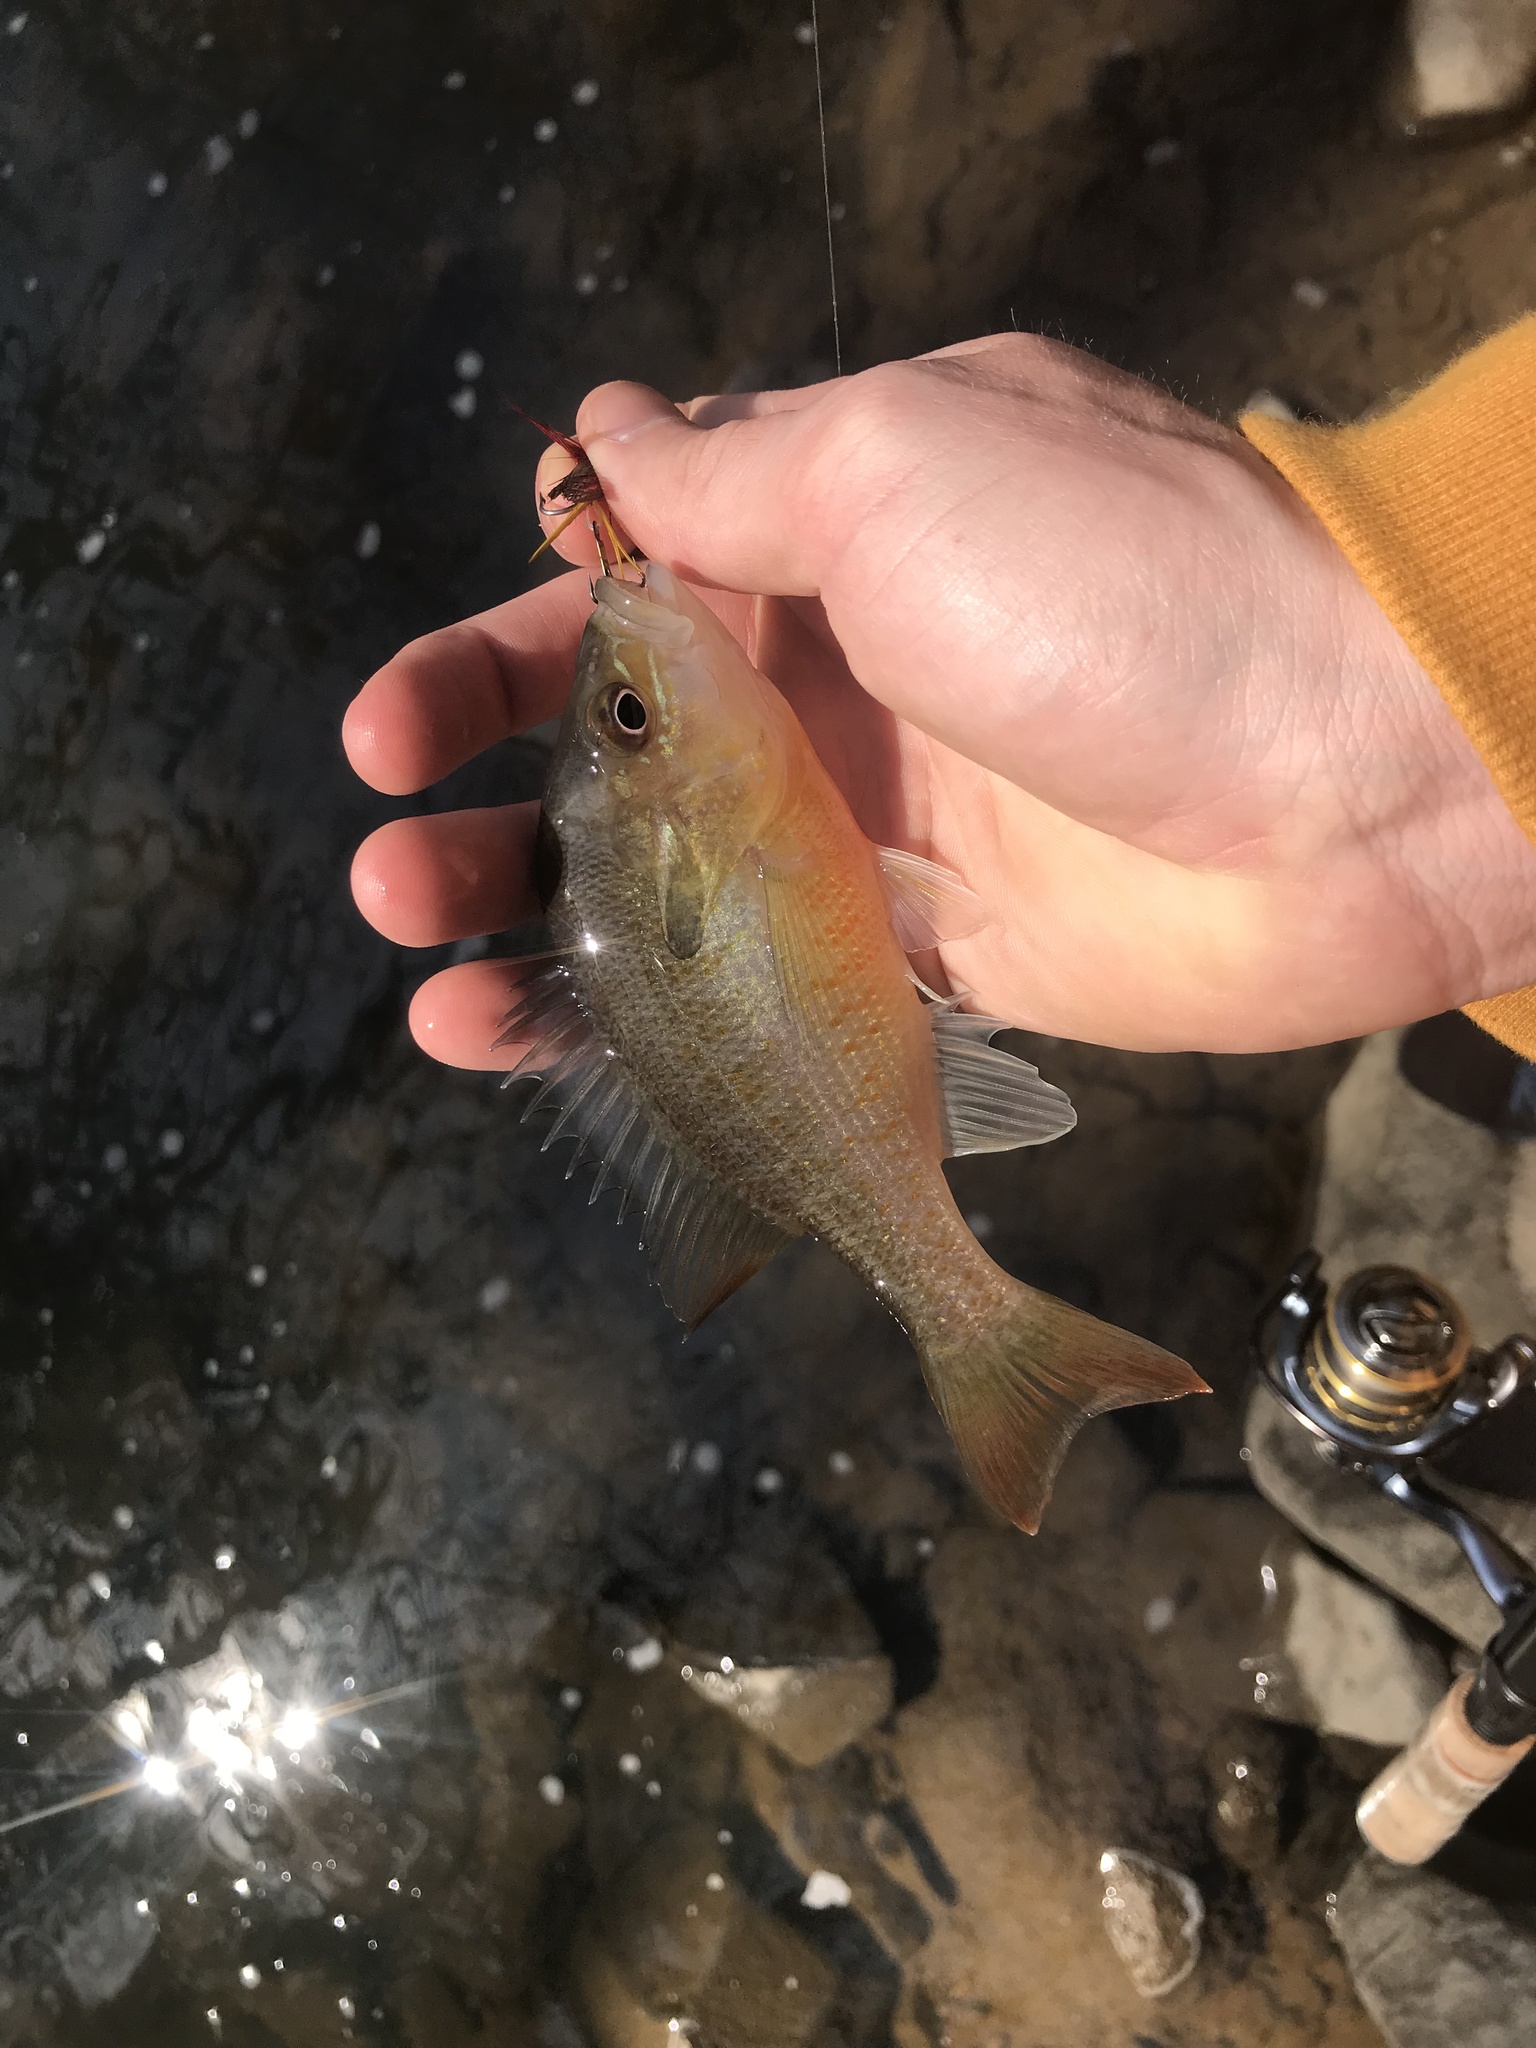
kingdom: Animalia
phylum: Chordata
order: Perciformes
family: Centrarchidae
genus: Lepomis
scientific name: Lepomis auritus
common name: Redbreast sunfish
